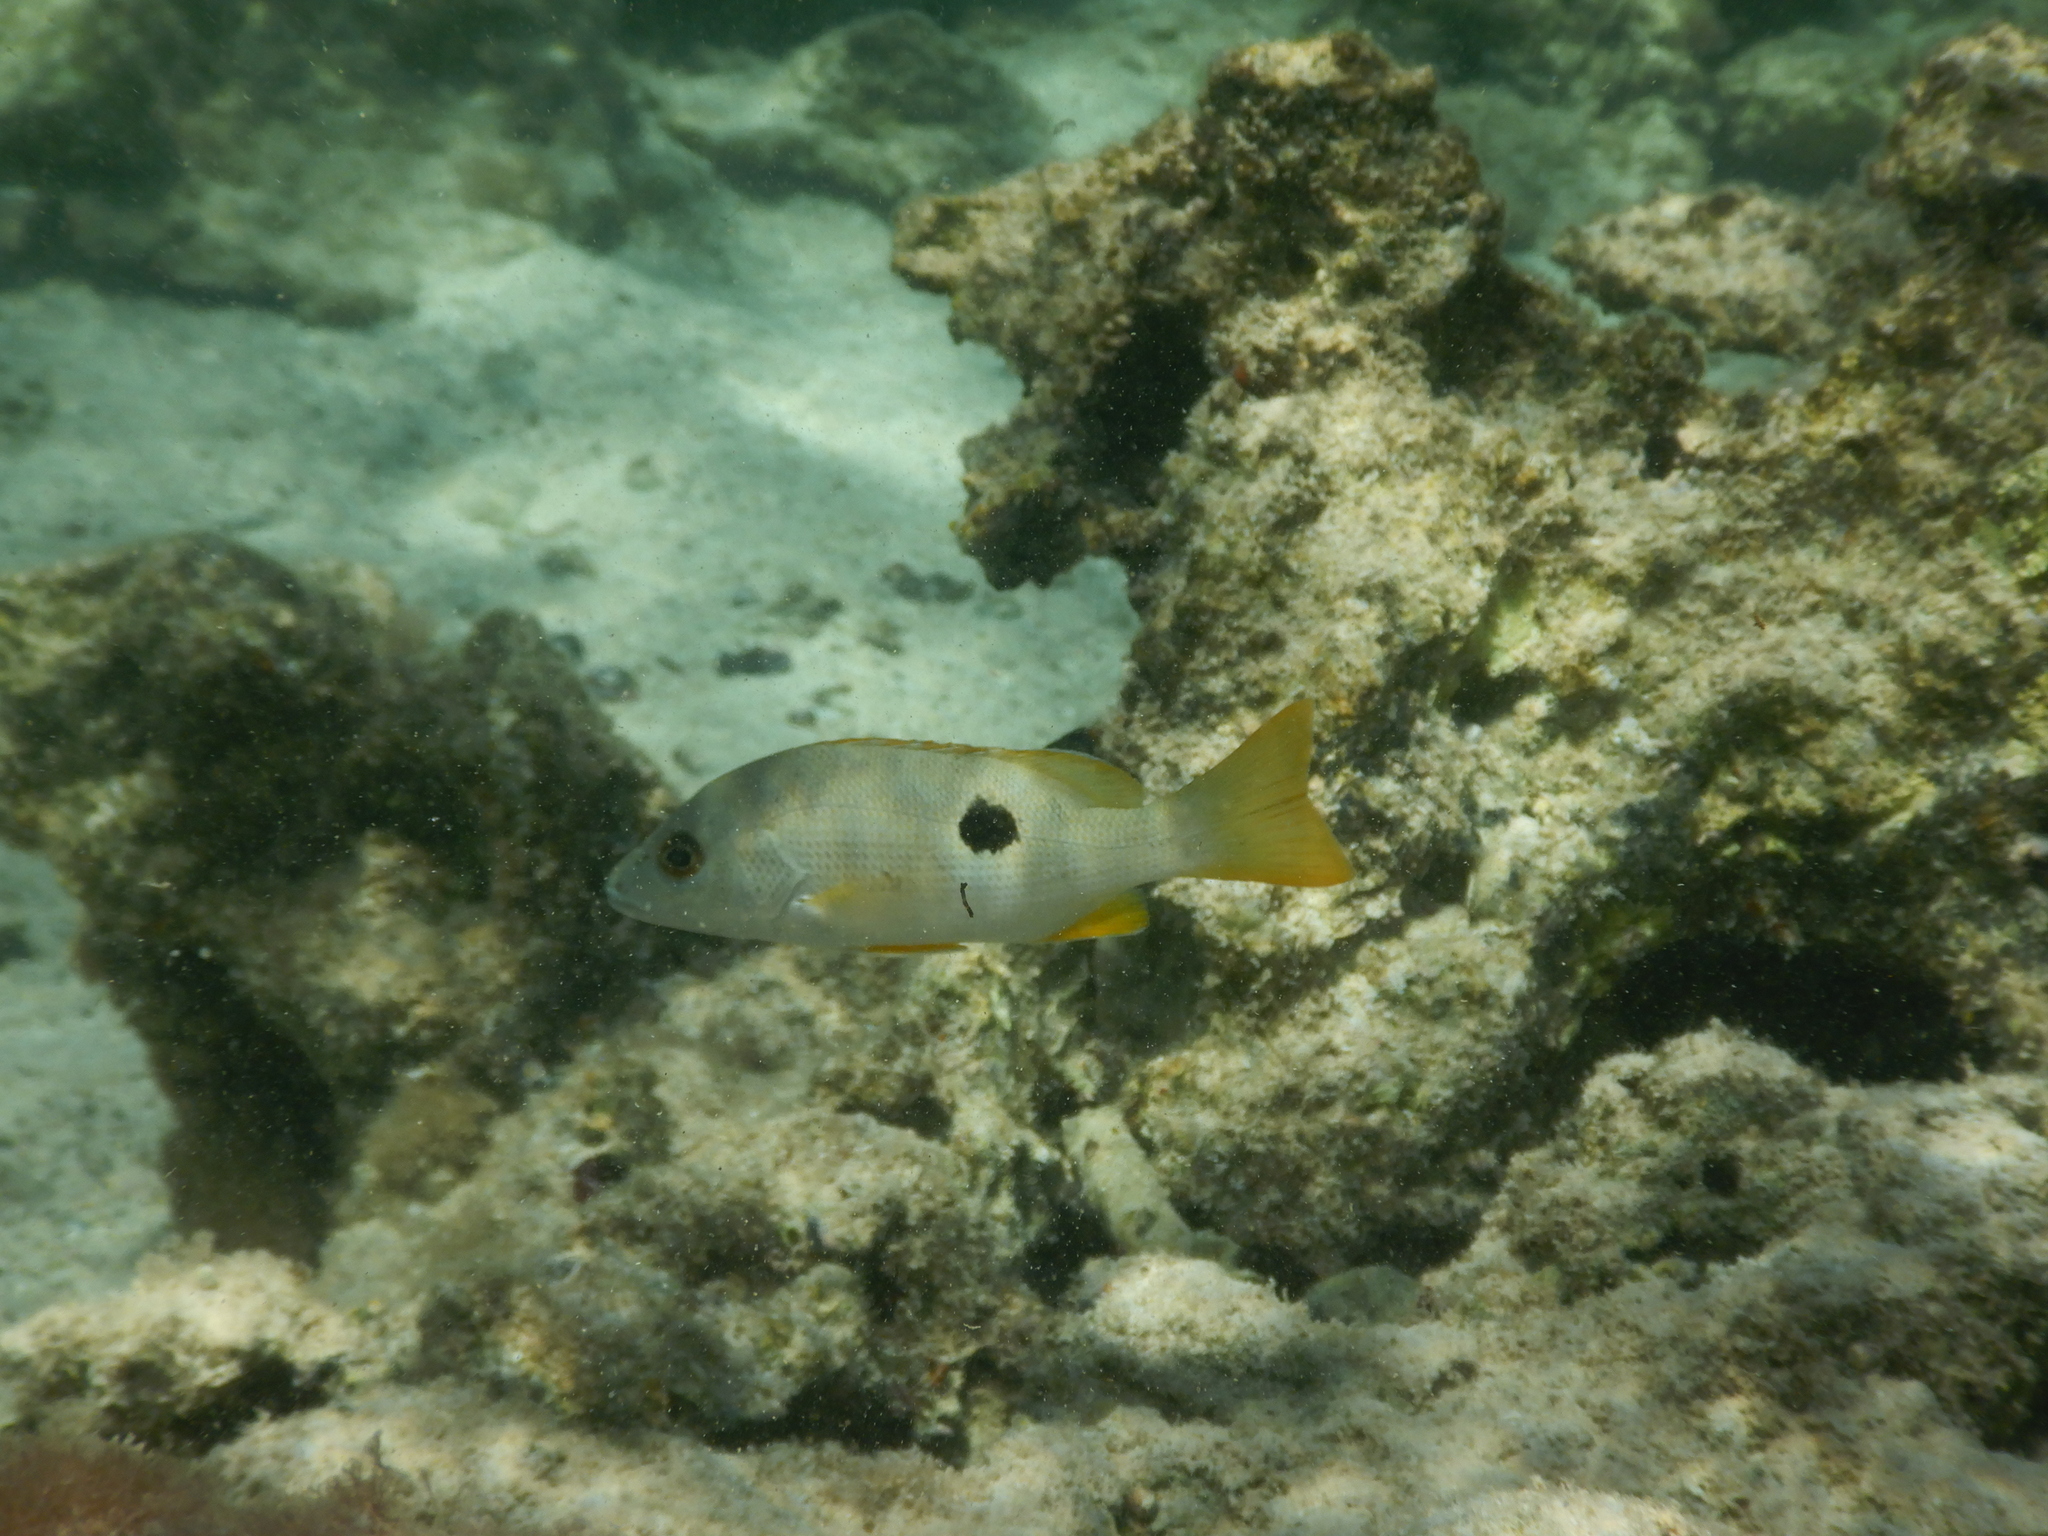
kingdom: Animalia
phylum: Chordata
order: Perciformes
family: Lutjanidae
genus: Lutjanus
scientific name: Lutjanus monostigma
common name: Onespot snapper
